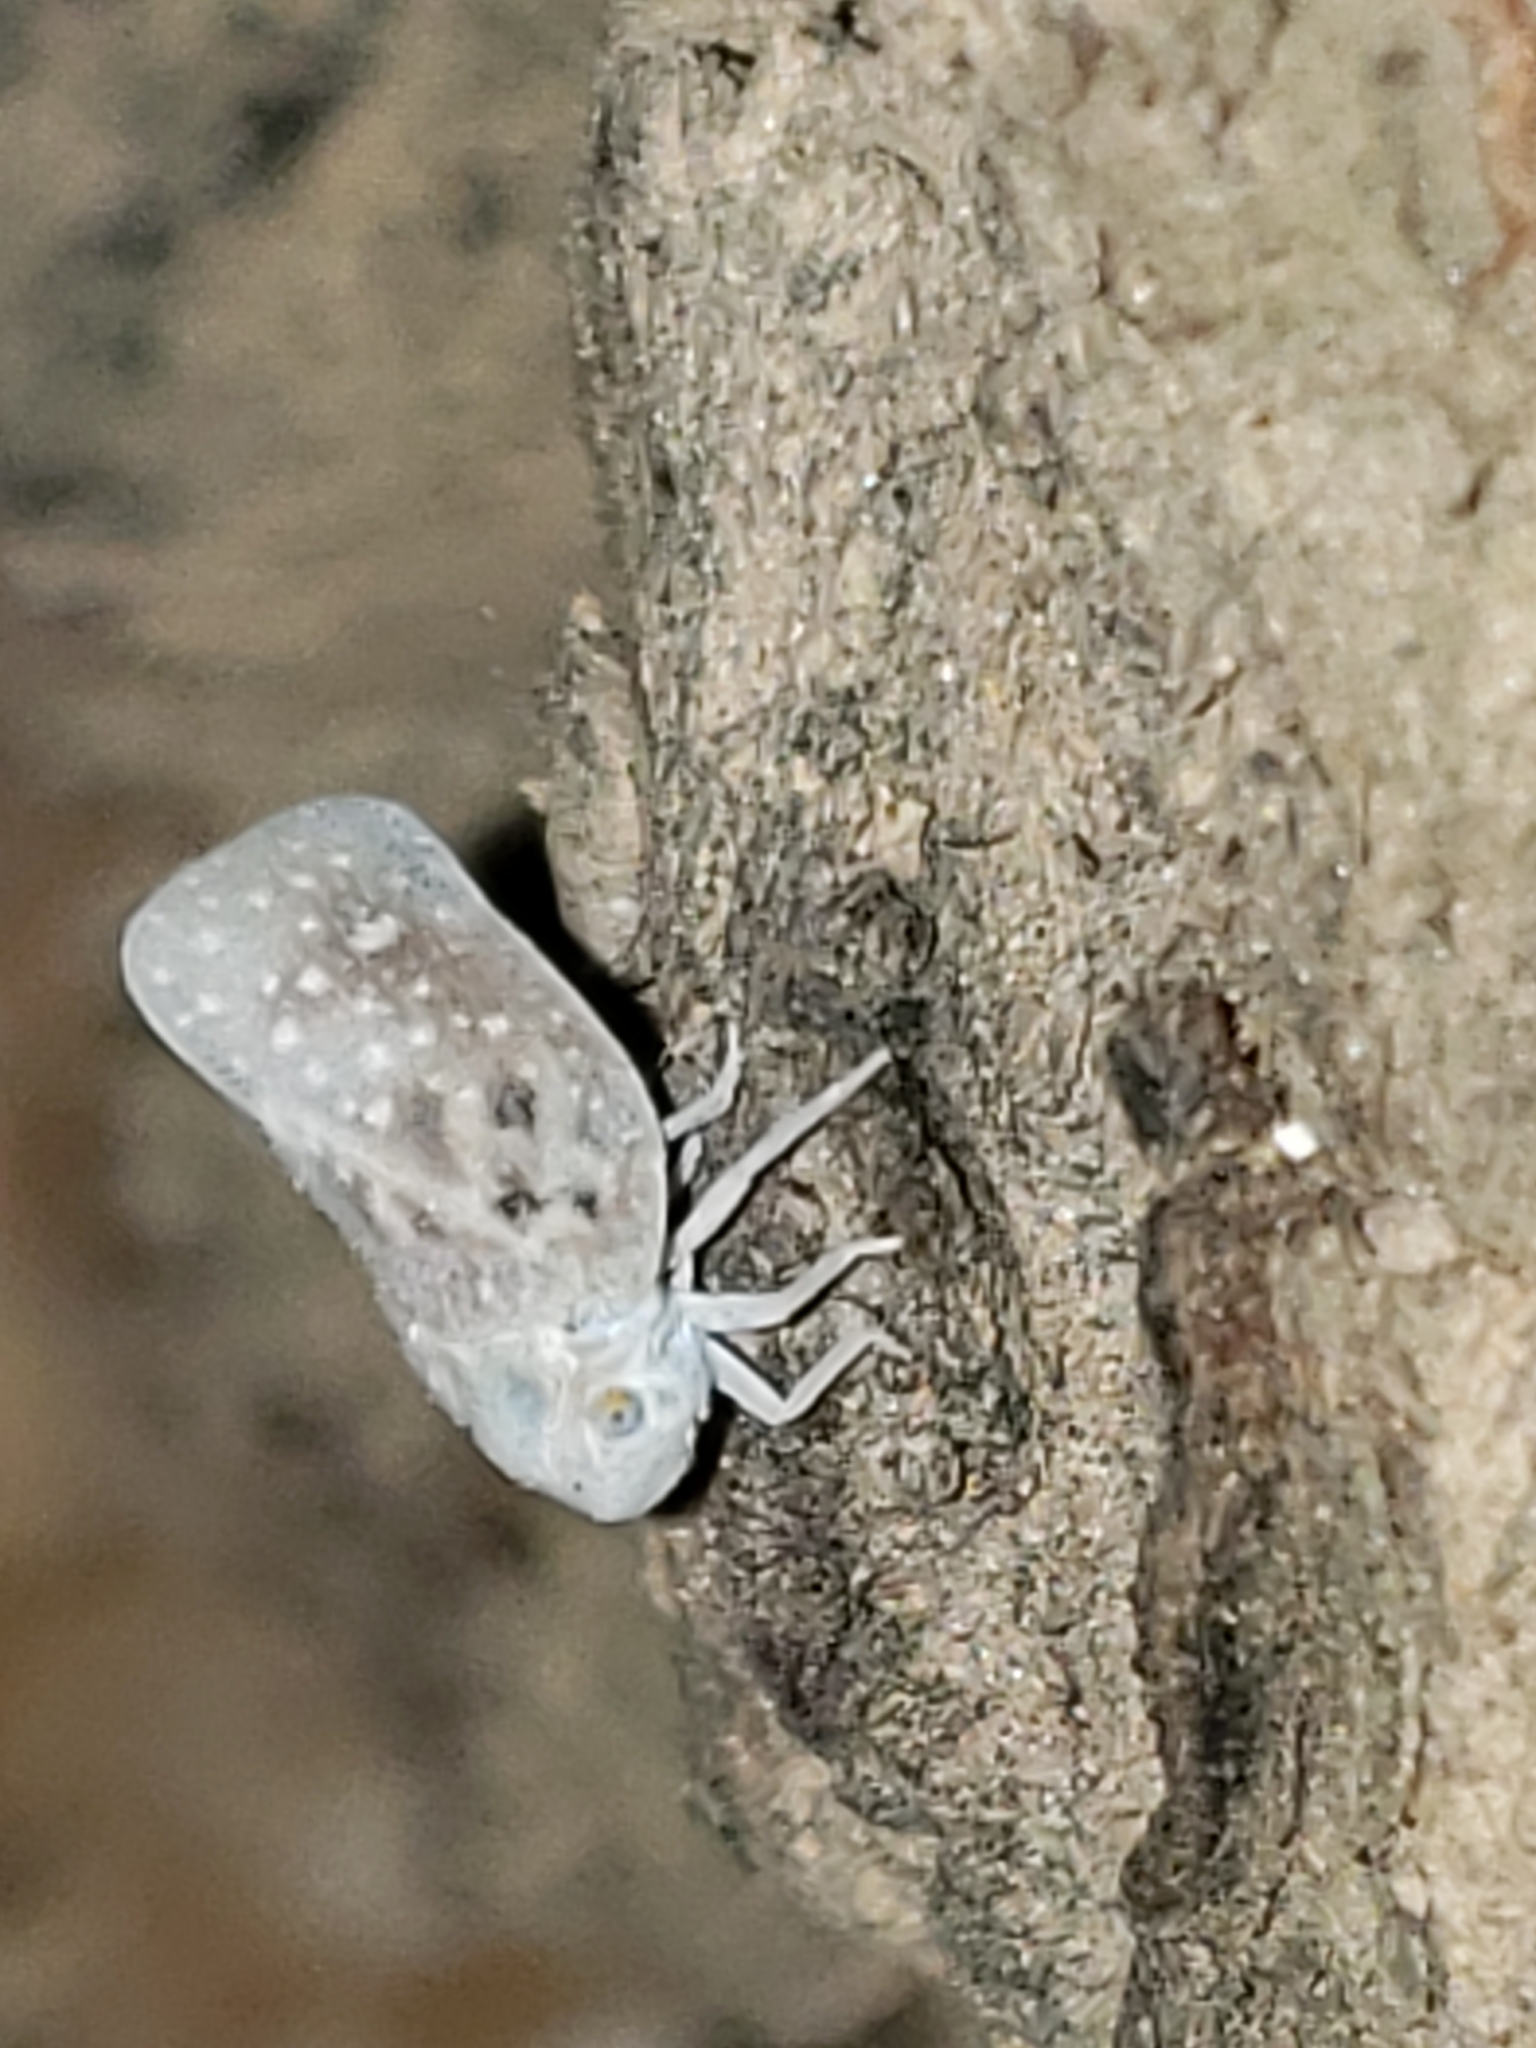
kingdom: Animalia
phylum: Arthropoda
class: Insecta
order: Hemiptera
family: Flatidae
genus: Metcalfa
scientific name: Metcalfa pruinosa
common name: Citrus flatid planthopper
